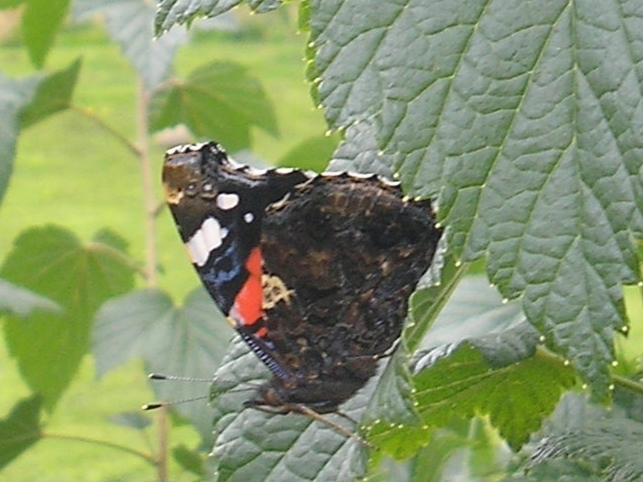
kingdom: Animalia
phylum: Arthropoda
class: Insecta
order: Lepidoptera
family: Nymphalidae
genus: Vanessa
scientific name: Vanessa atalanta
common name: Red admiral
